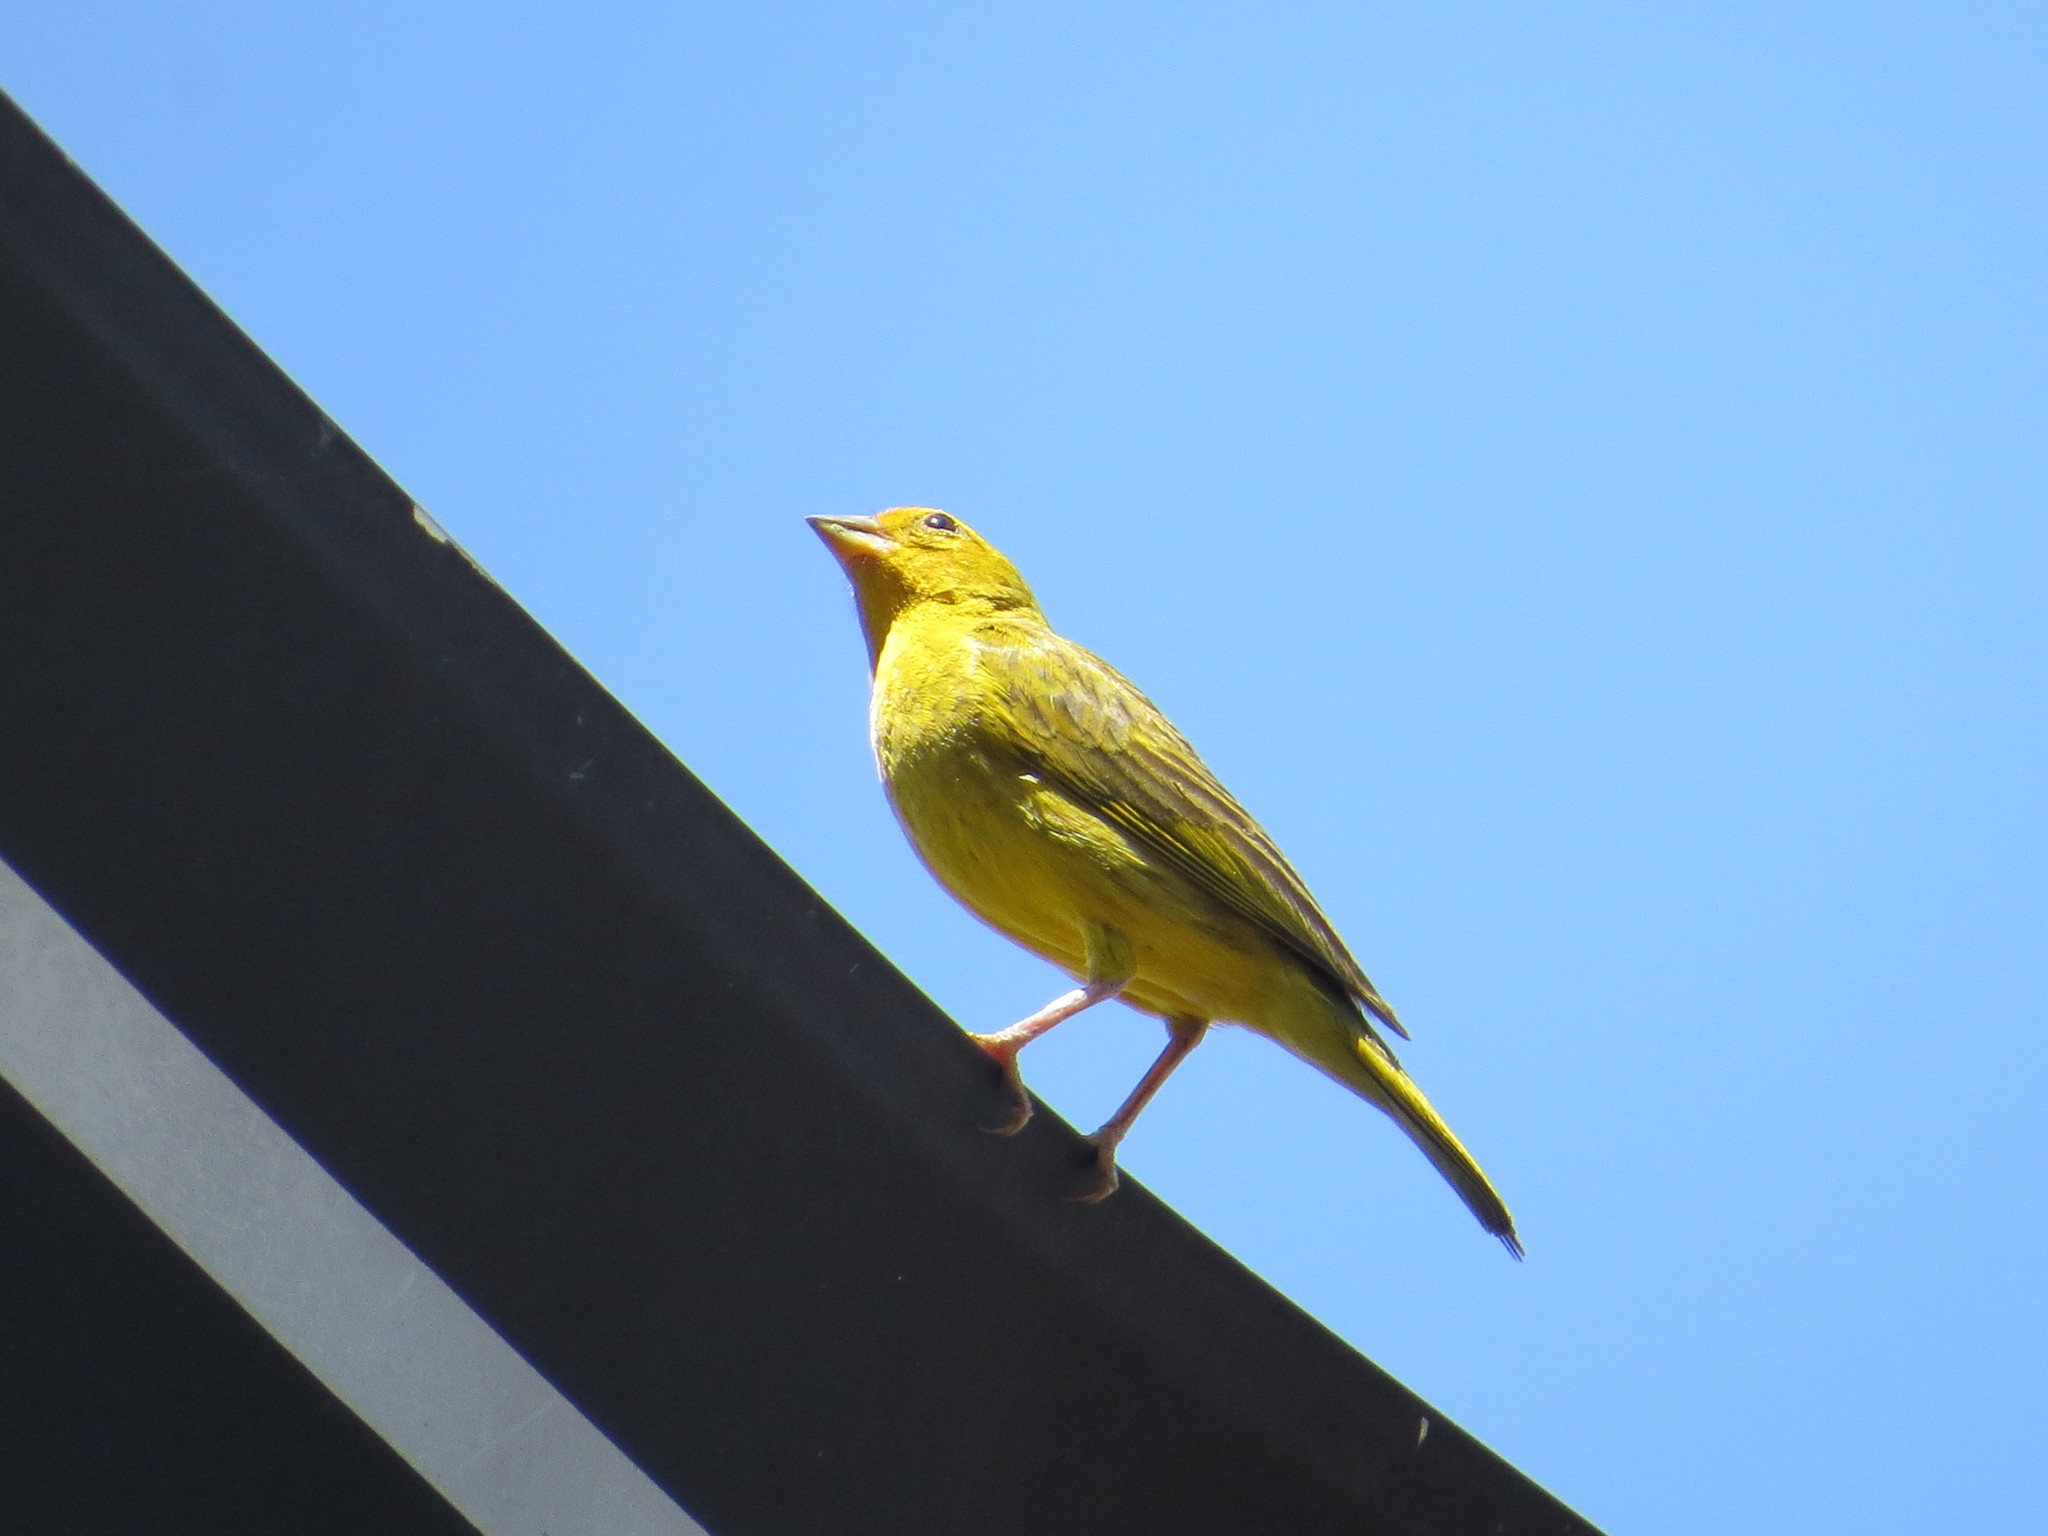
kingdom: Animalia
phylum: Chordata
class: Aves
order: Passeriformes
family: Thraupidae
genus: Sicalis
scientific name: Sicalis flaveola
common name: Saffron finch
